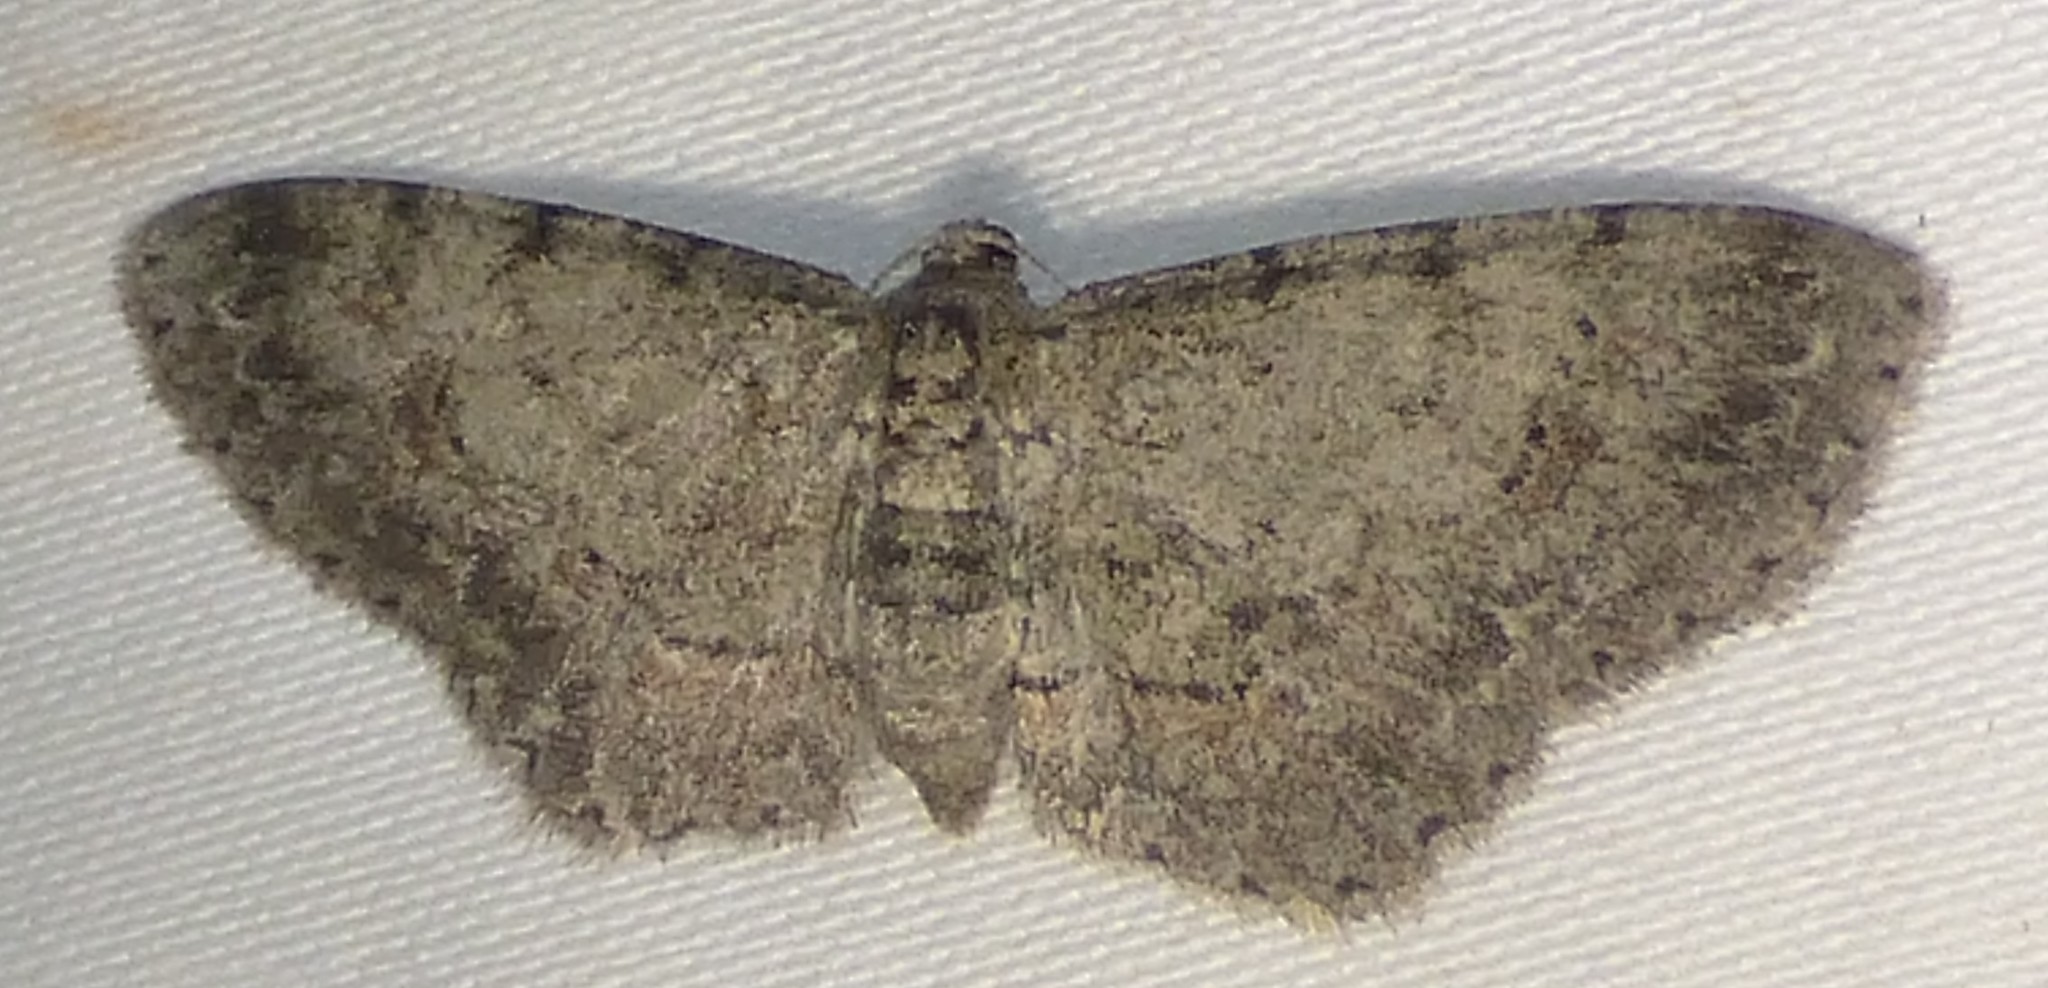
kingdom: Animalia
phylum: Arthropoda
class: Insecta
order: Lepidoptera
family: Geometridae
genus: Glenoides
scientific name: Glenoides texanaria
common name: Texas gray
